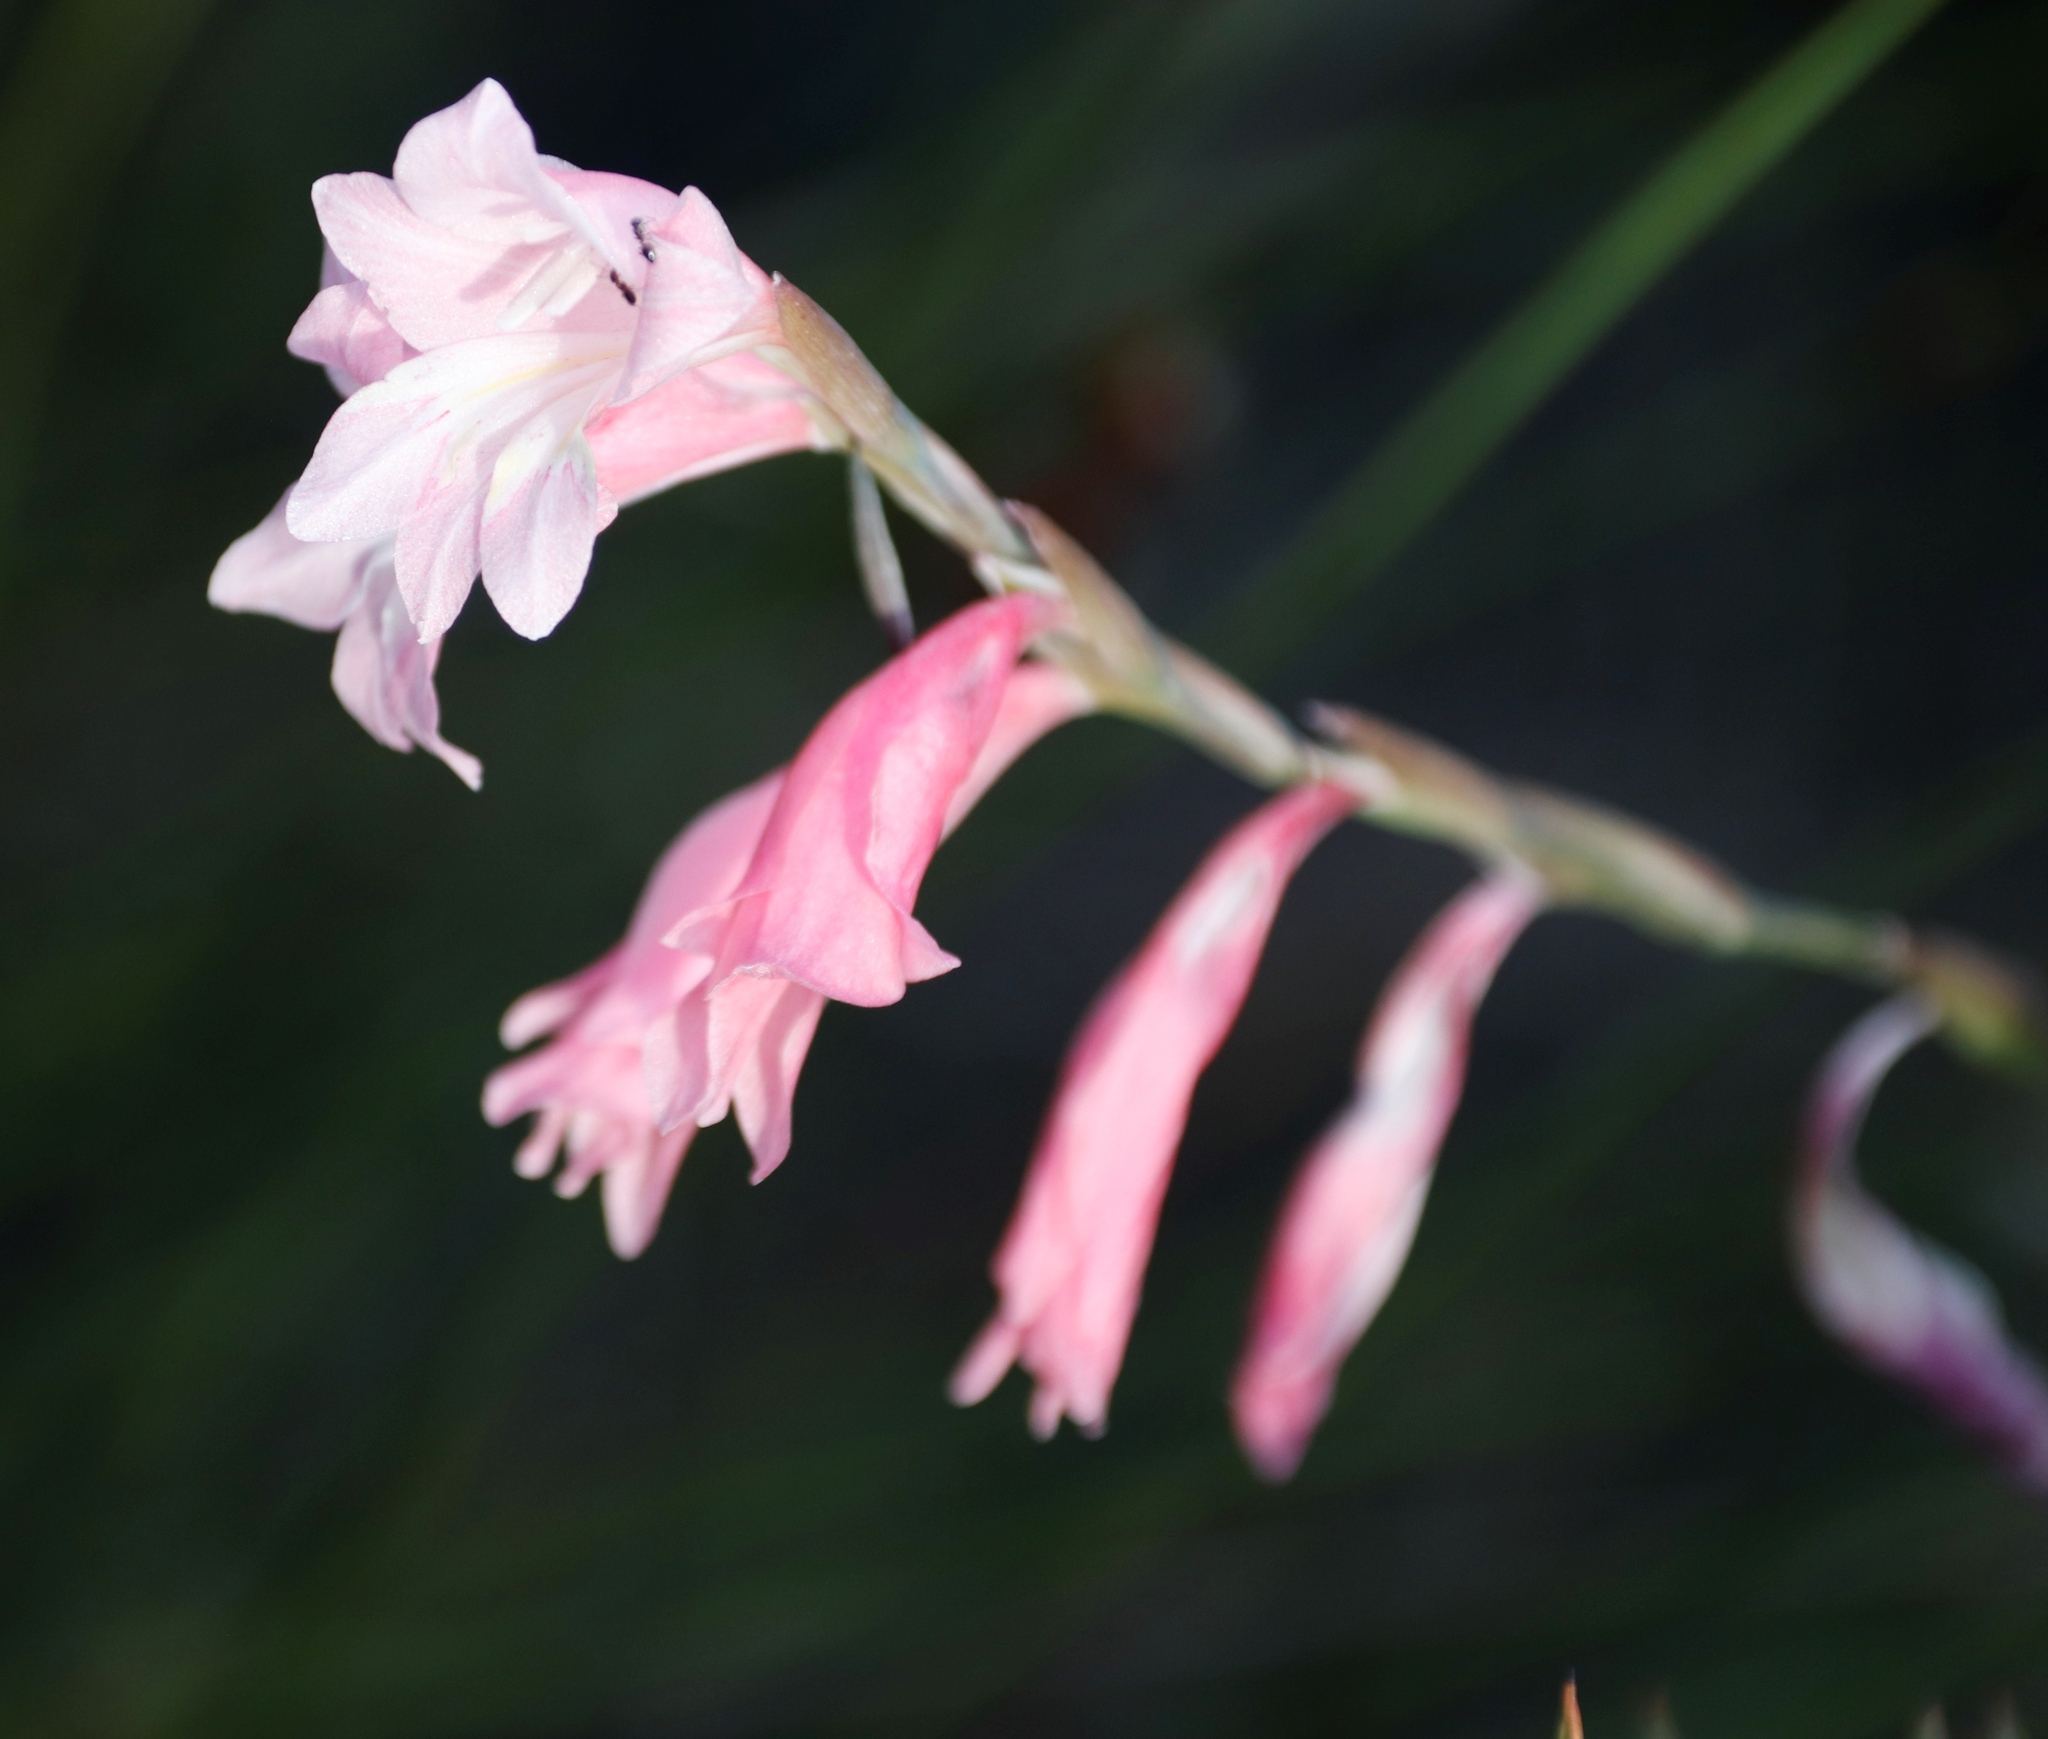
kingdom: Plantae
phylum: Tracheophyta
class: Liliopsida
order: Asparagales
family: Iridaceae
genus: Gladiolus
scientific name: Gladiolus brevifolius
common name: March pypie
